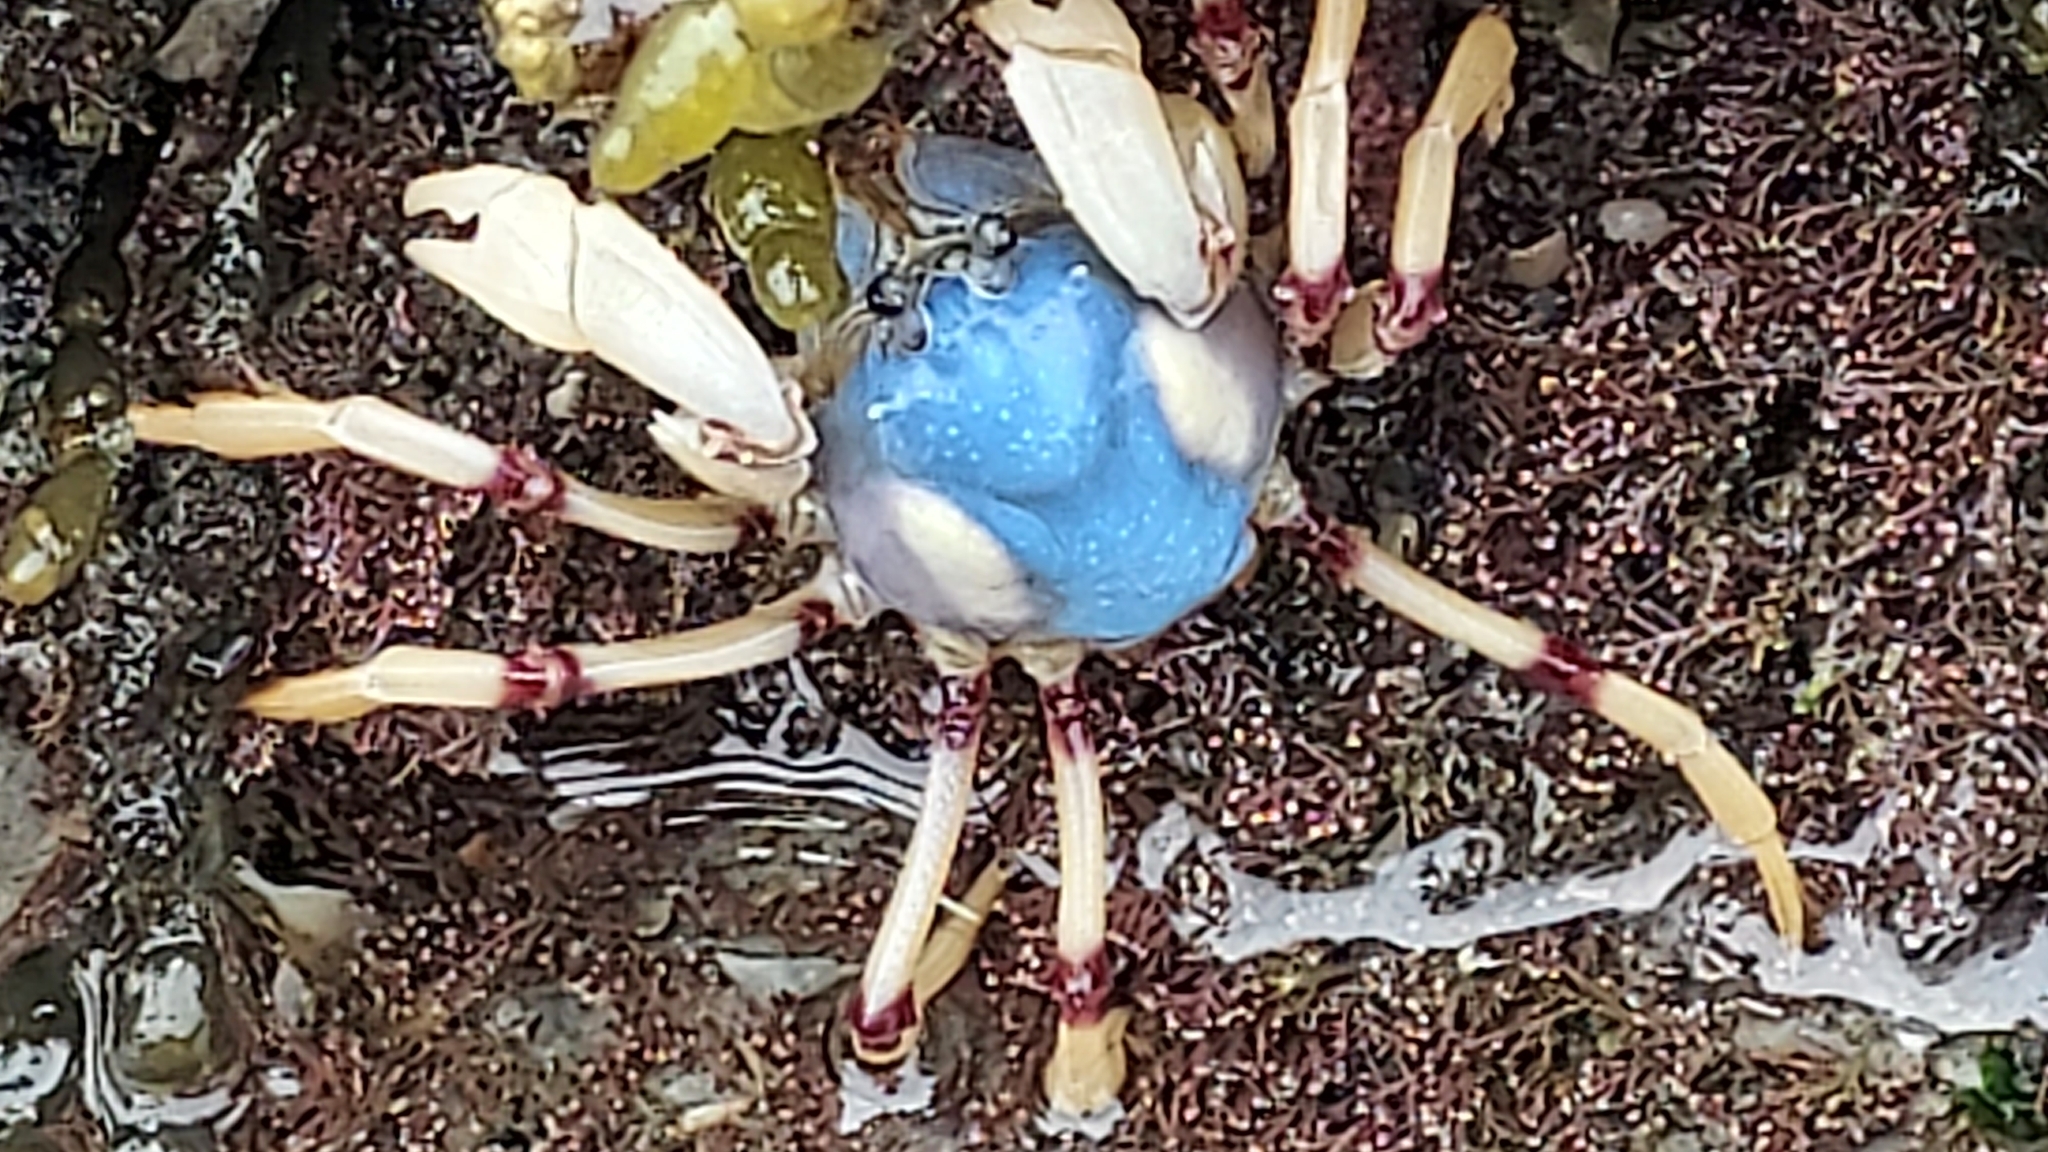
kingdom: Animalia
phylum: Arthropoda
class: Malacostraca
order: Decapoda
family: Mictyridae
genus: Mictyris
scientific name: Mictyris longicarpus
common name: Light-blue soldier crab
